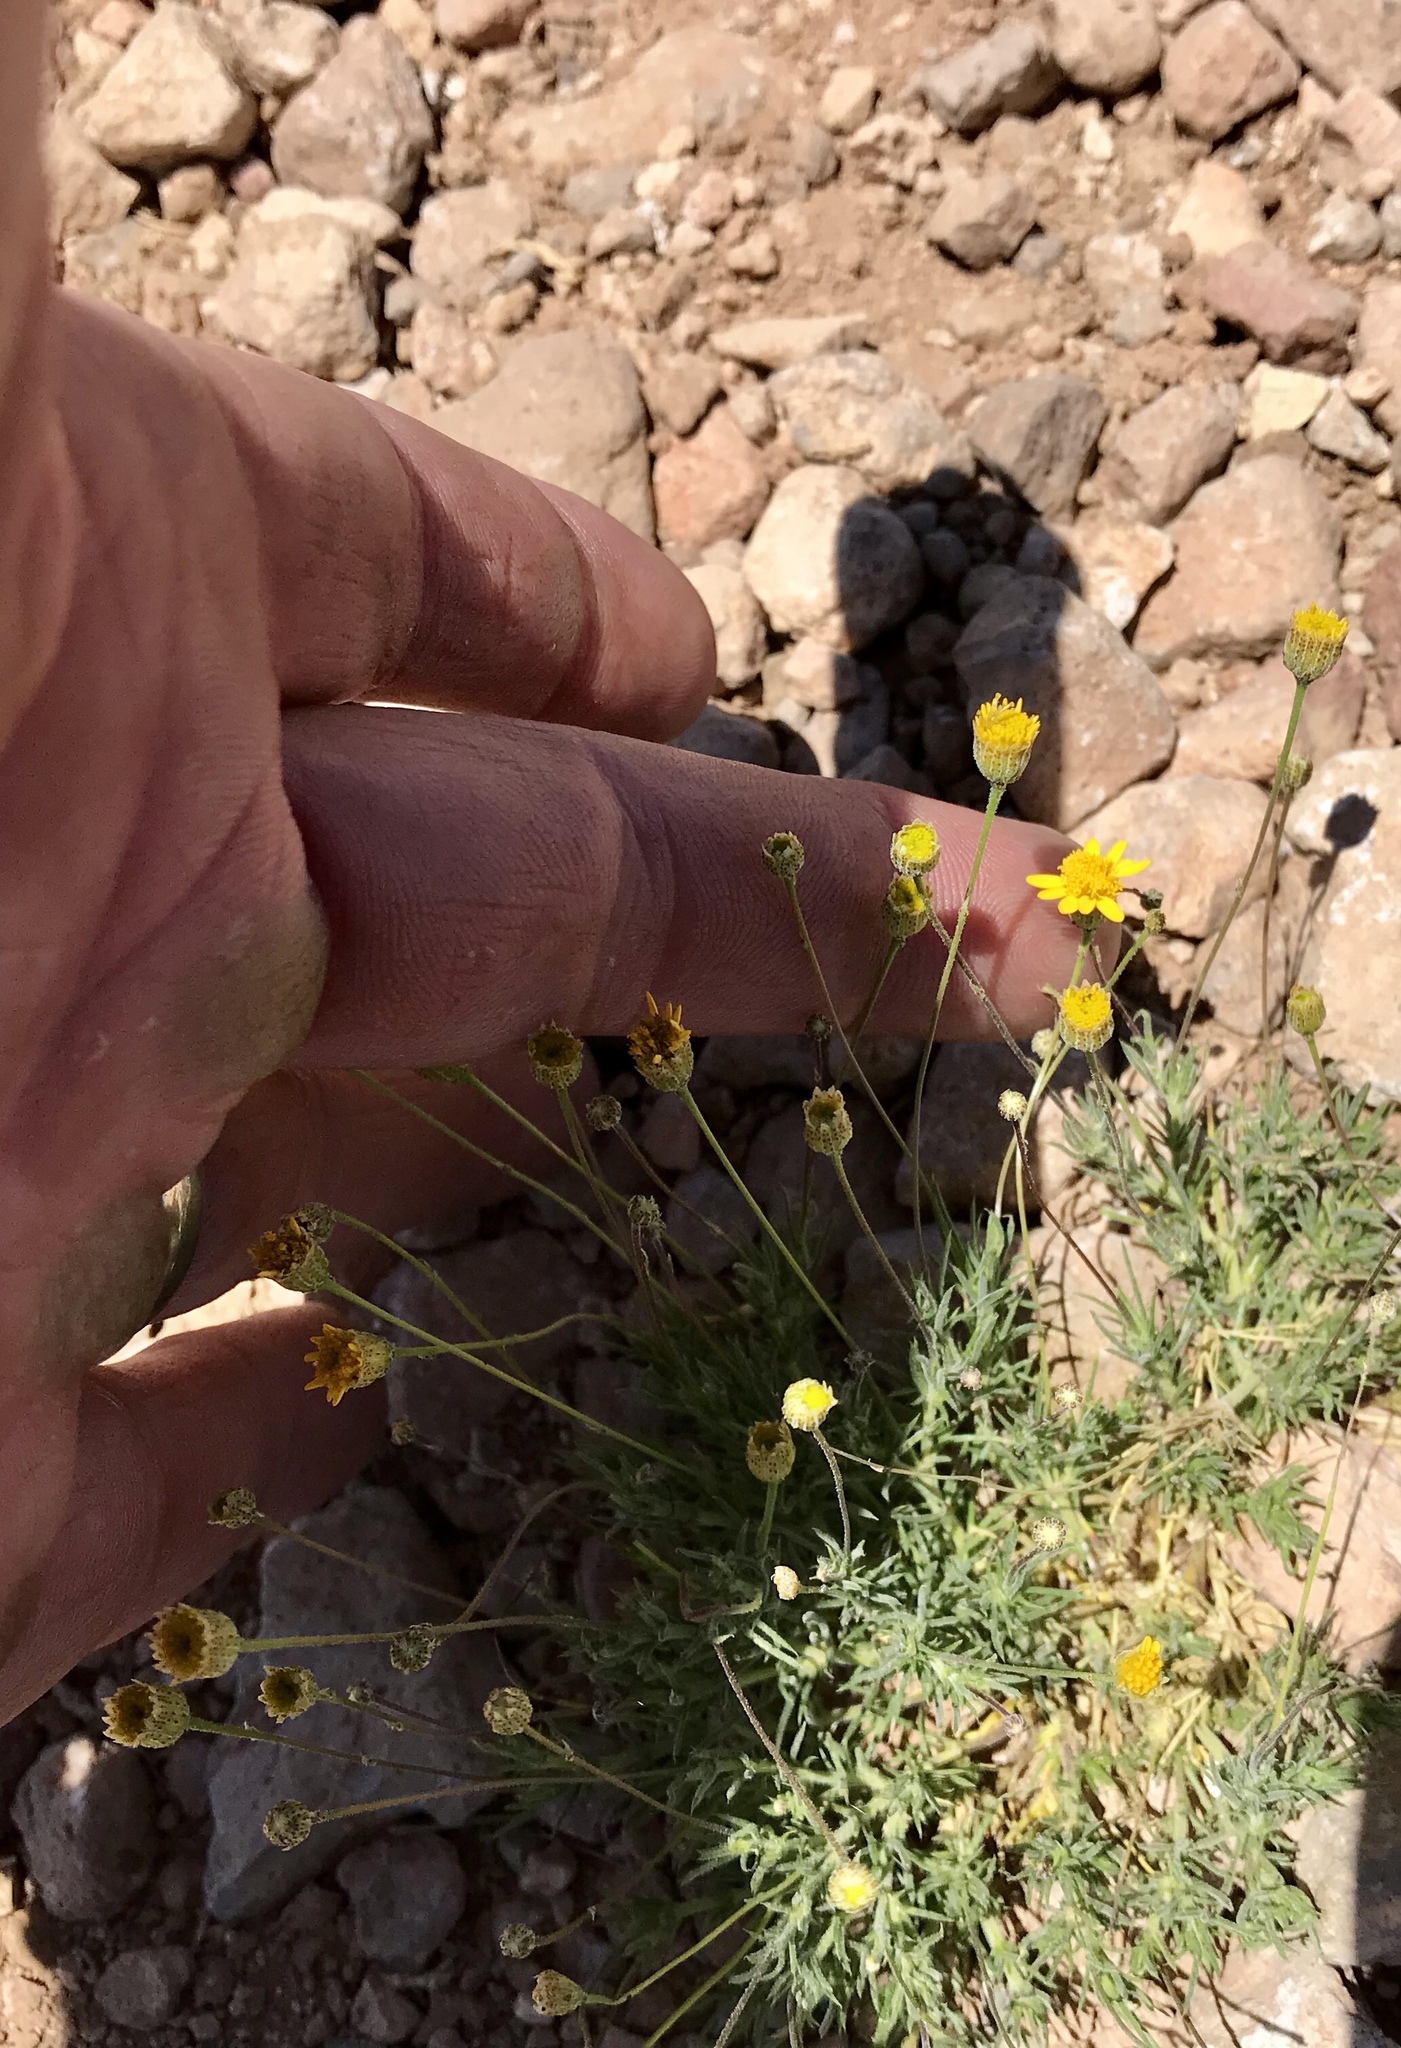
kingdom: Plantae
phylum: Tracheophyta
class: Magnoliopsida
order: Asterales
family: Asteraceae
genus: Thymophylla
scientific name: Thymophylla pentachaeta
